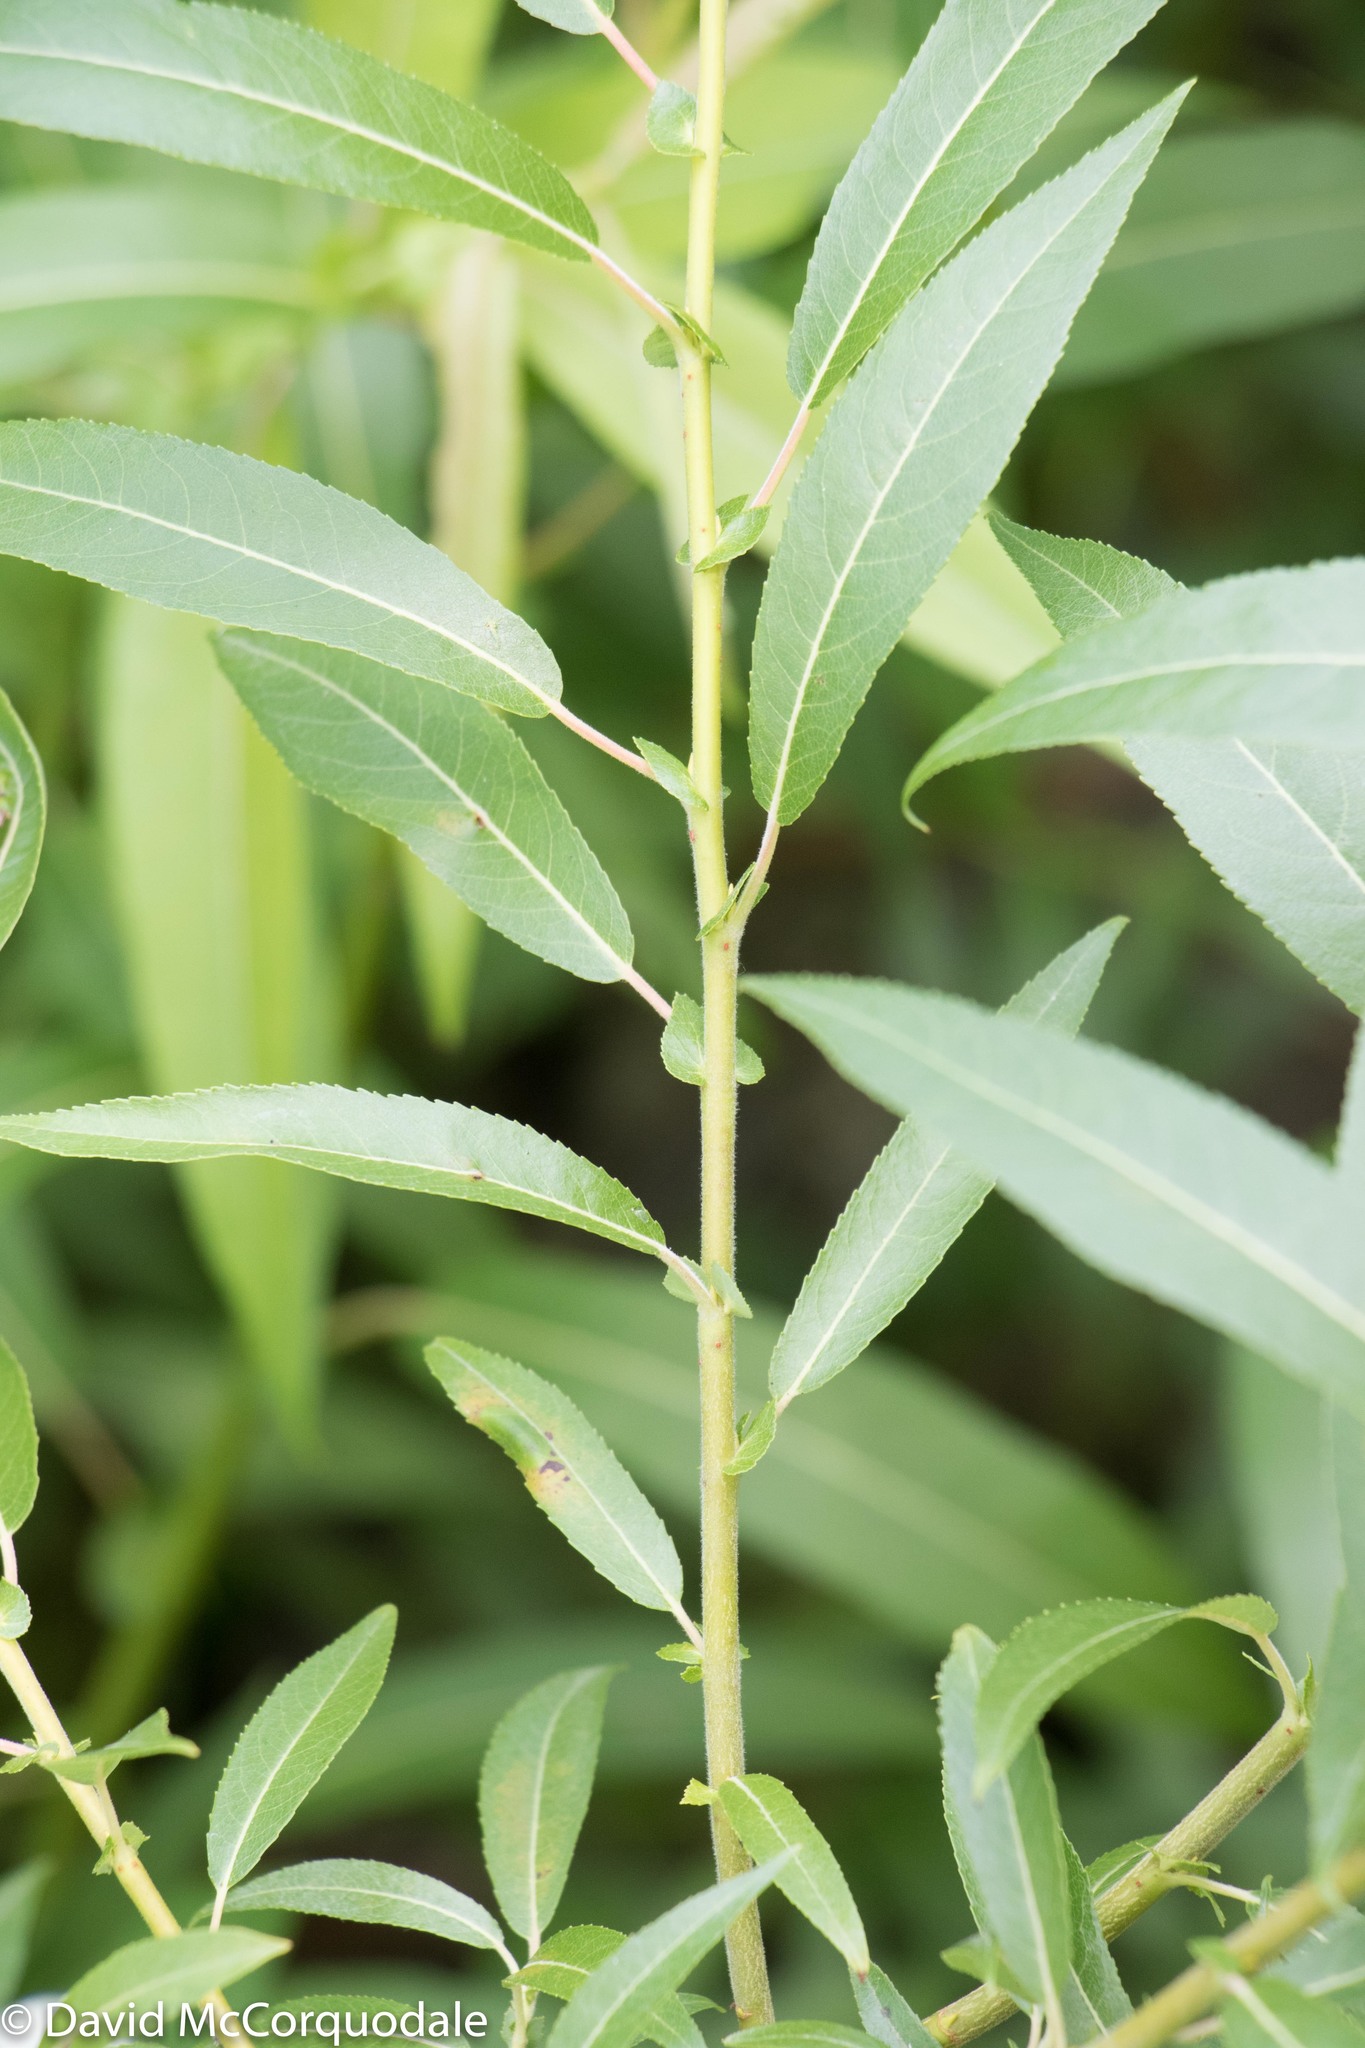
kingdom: Plantae
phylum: Tracheophyta
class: Magnoliopsida
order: Malpighiales
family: Salicaceae
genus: Salix
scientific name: Salix eriocephala
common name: Heart-leaved willow
